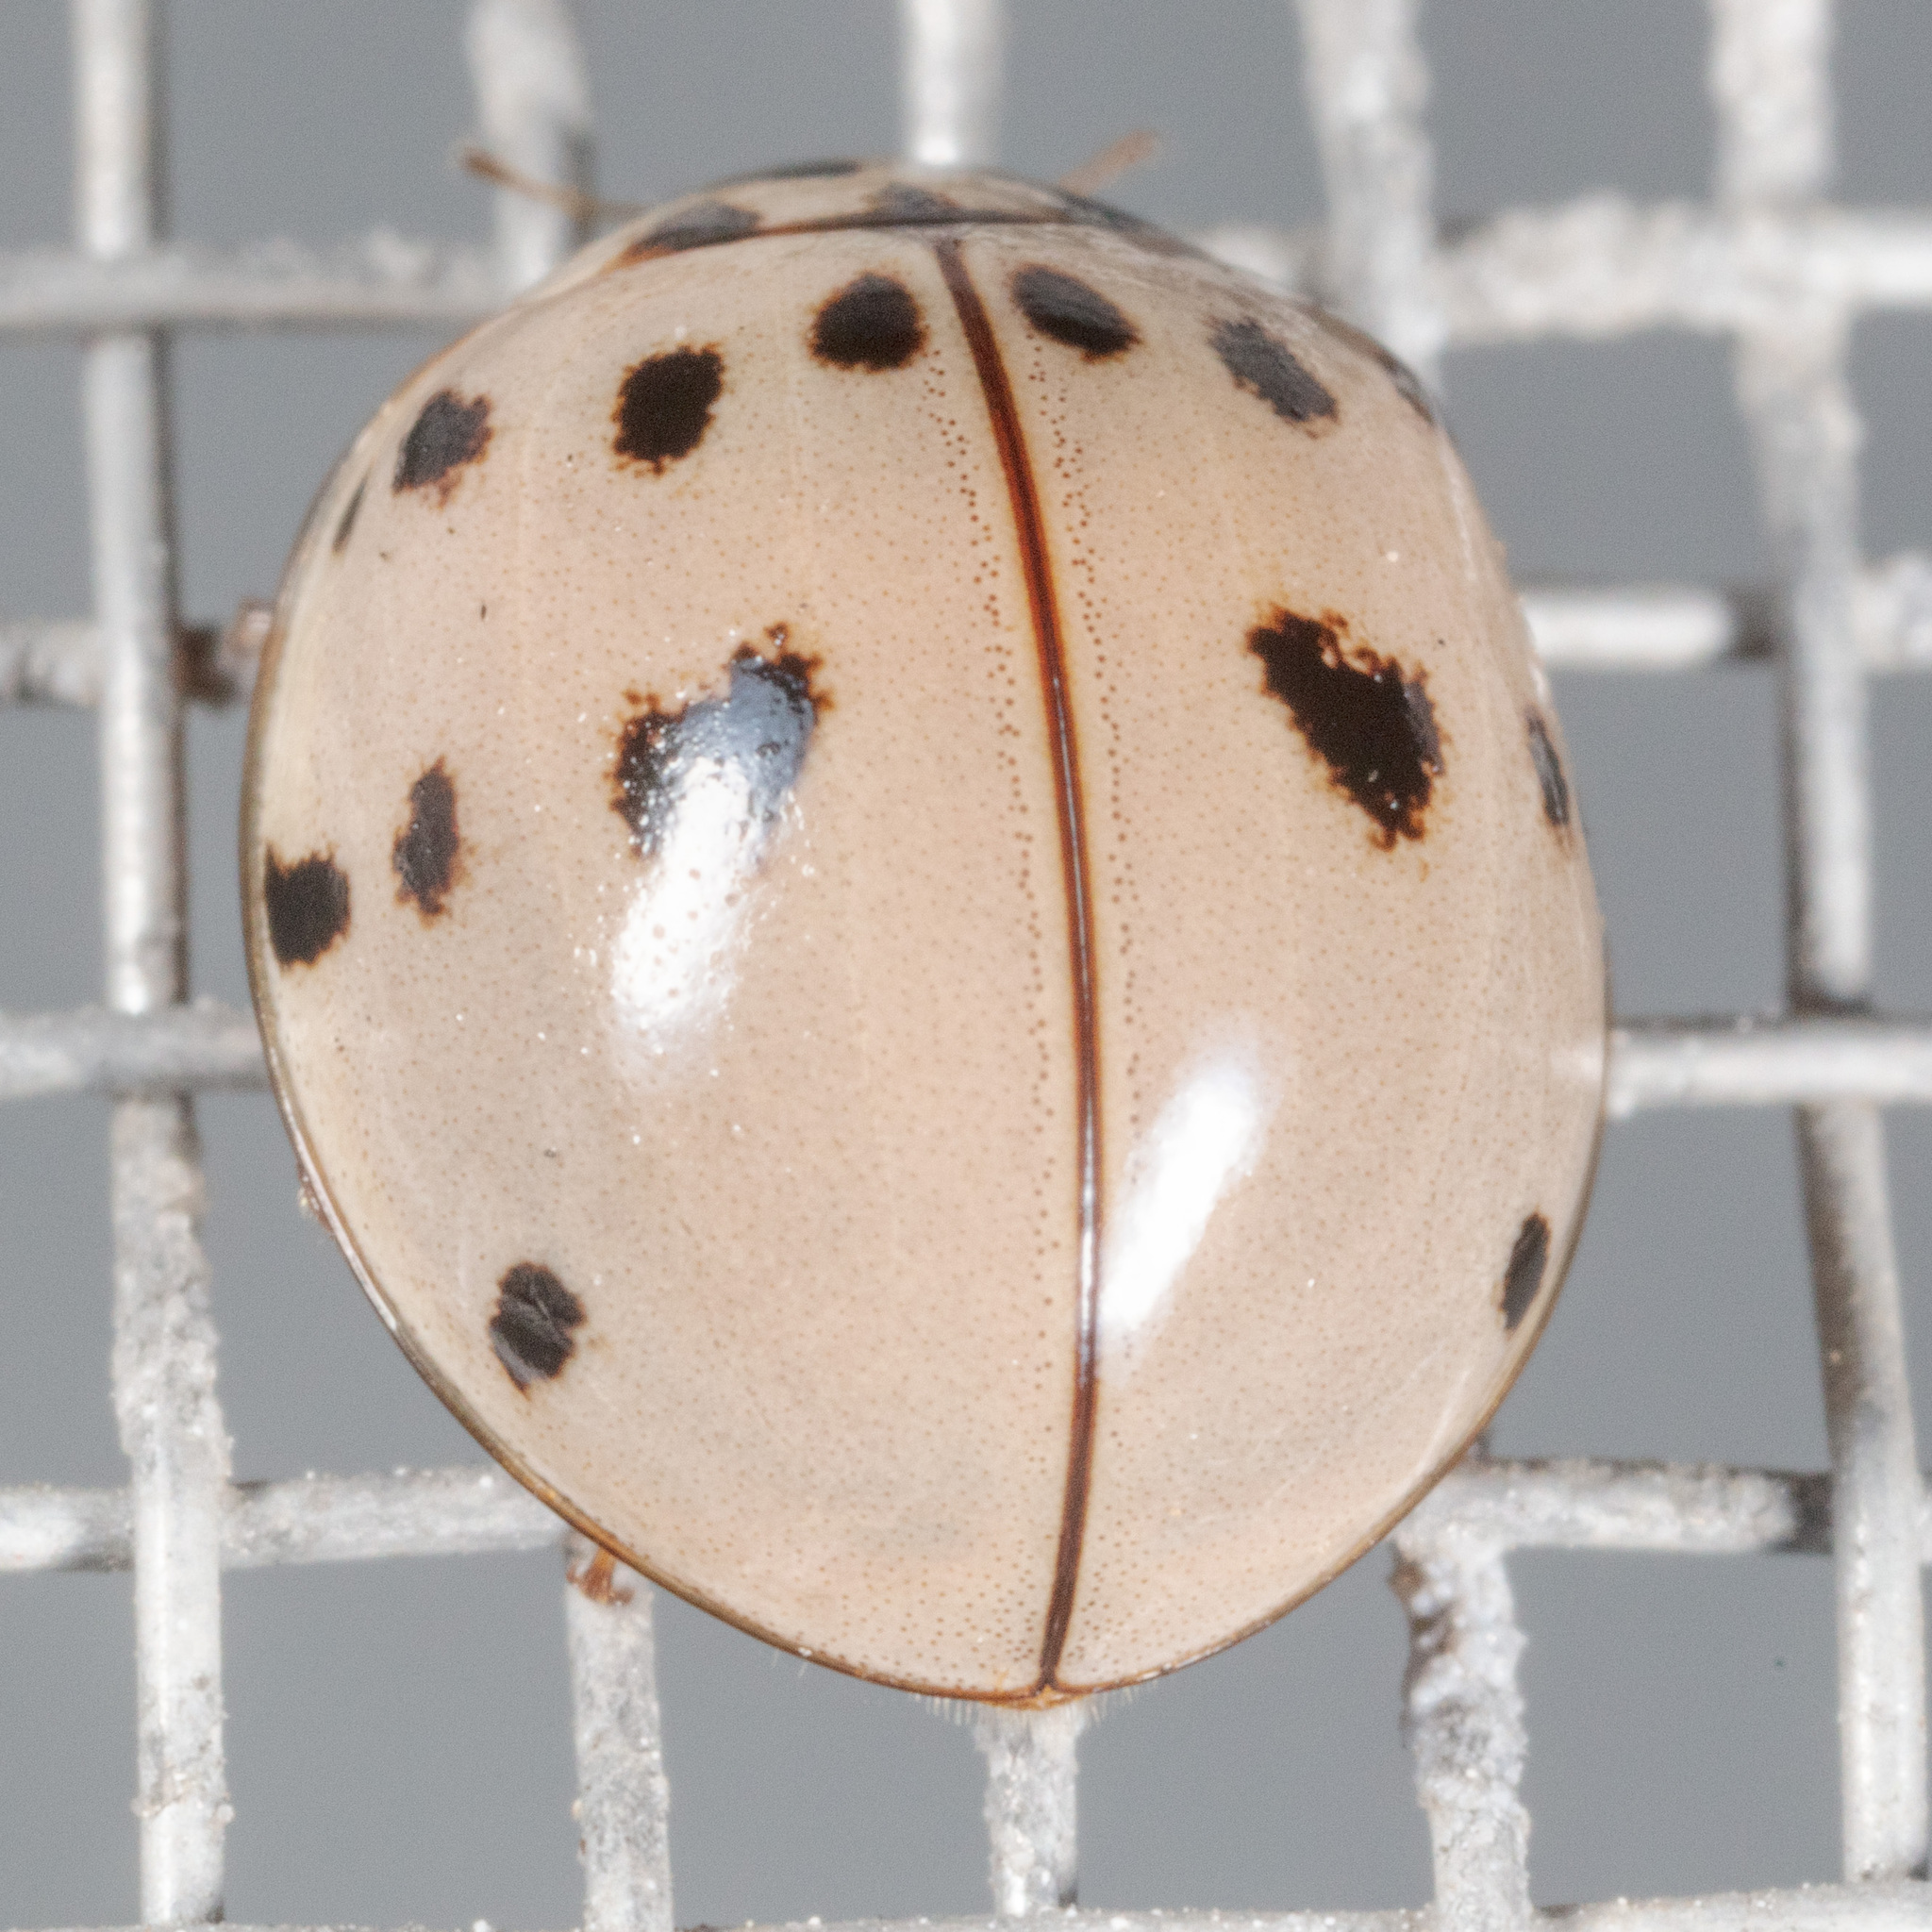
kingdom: Animalia
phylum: Arthropoda
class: Insecta
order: Coleoptera
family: Coccinellidae
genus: Olla
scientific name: Olla v-nigrum
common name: Ashy gray lady beetle
